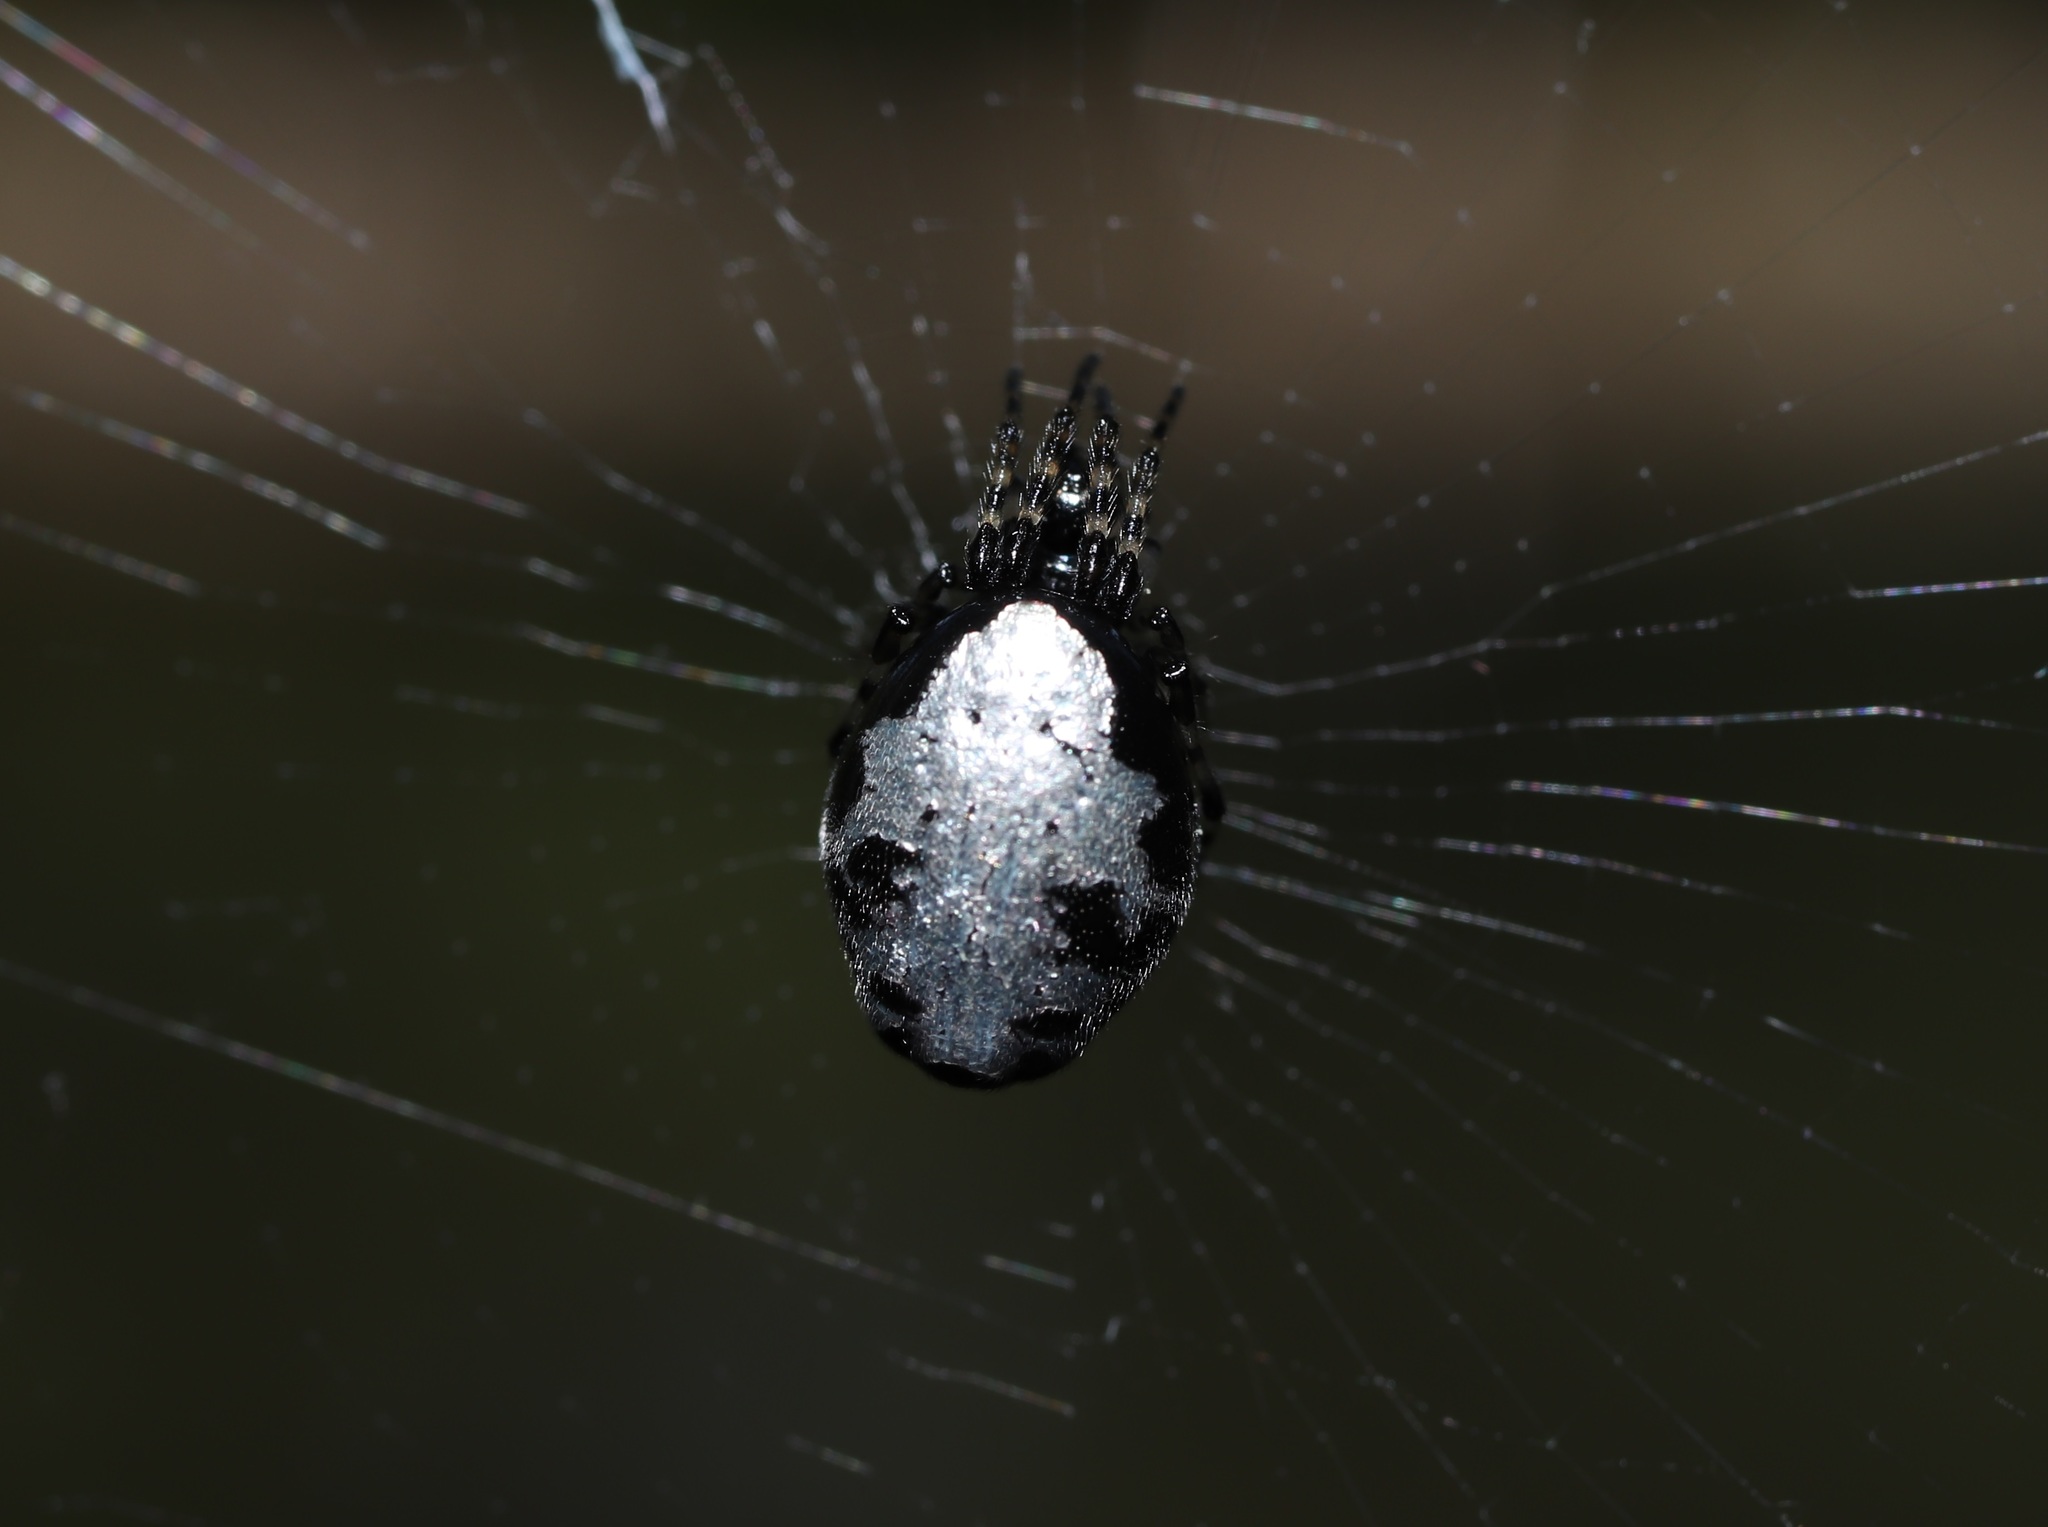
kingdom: Animalia
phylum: Arthropoda
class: Arachnida
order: Araneae
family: Araneidae
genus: Cyclosa
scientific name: Cyclosa argenteoalba
